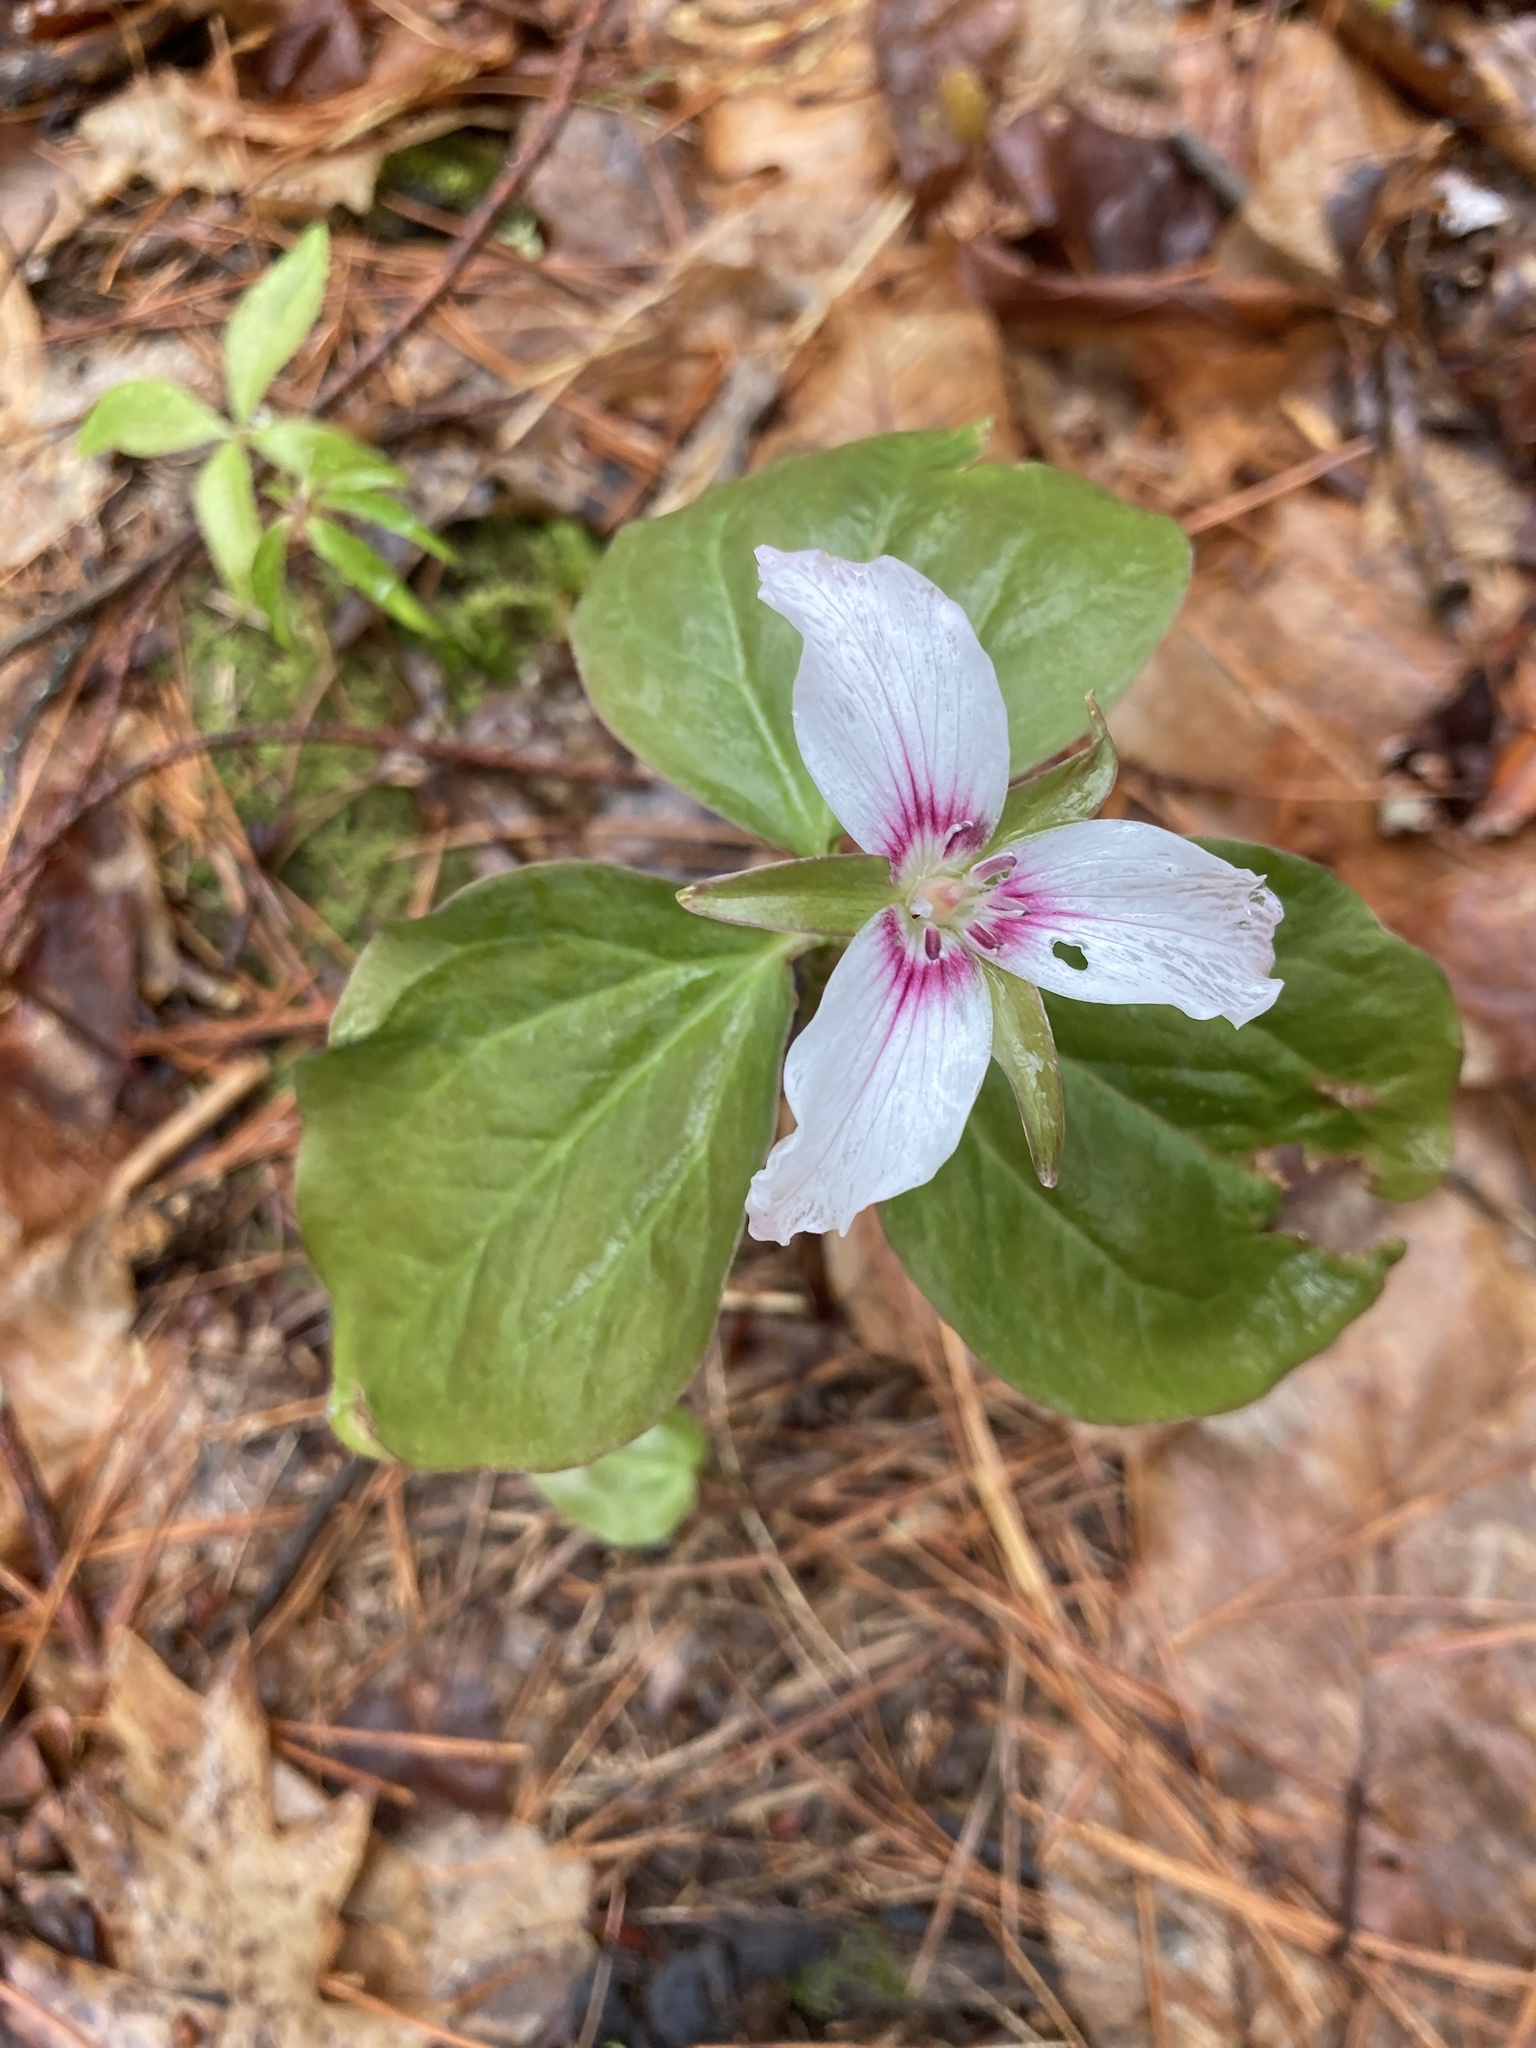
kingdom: Plantae
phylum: Tracheophyta
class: Liliopsida
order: Liliales
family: Melanthiaceae
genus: Trillium
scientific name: Trillium undulatum
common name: Paint trillium
